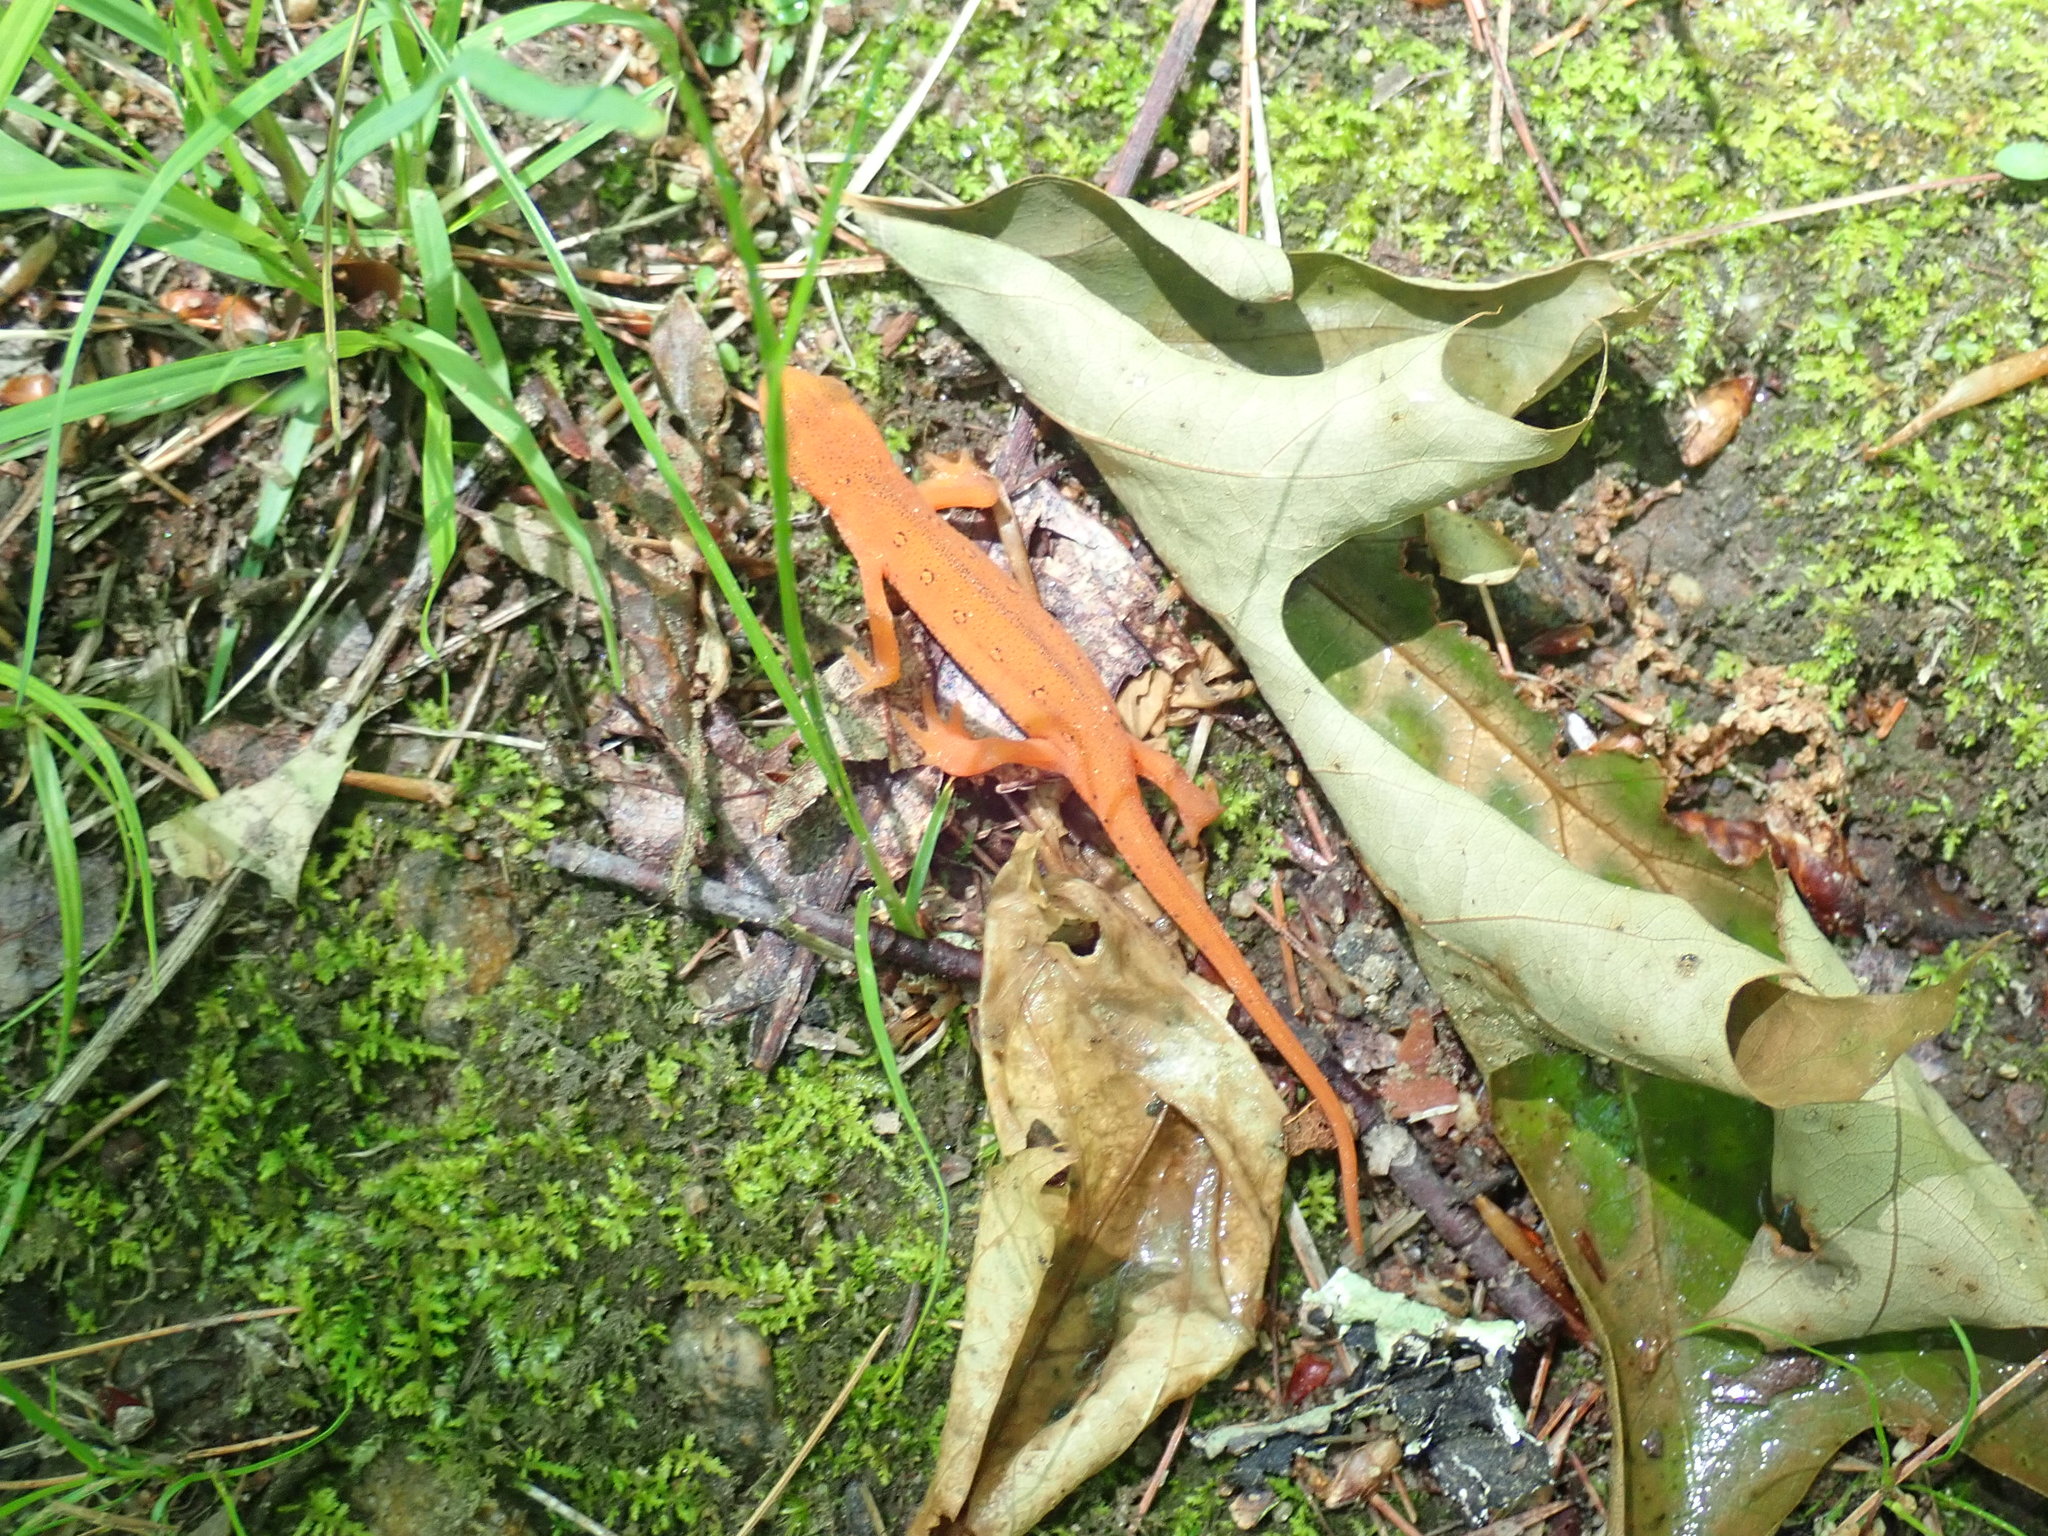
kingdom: Animalia
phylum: Chordata
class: Amphibia
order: Caudata
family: Salamandridae
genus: Notophthalmus
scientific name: Notophthalmus viridescens
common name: Eastern newt
